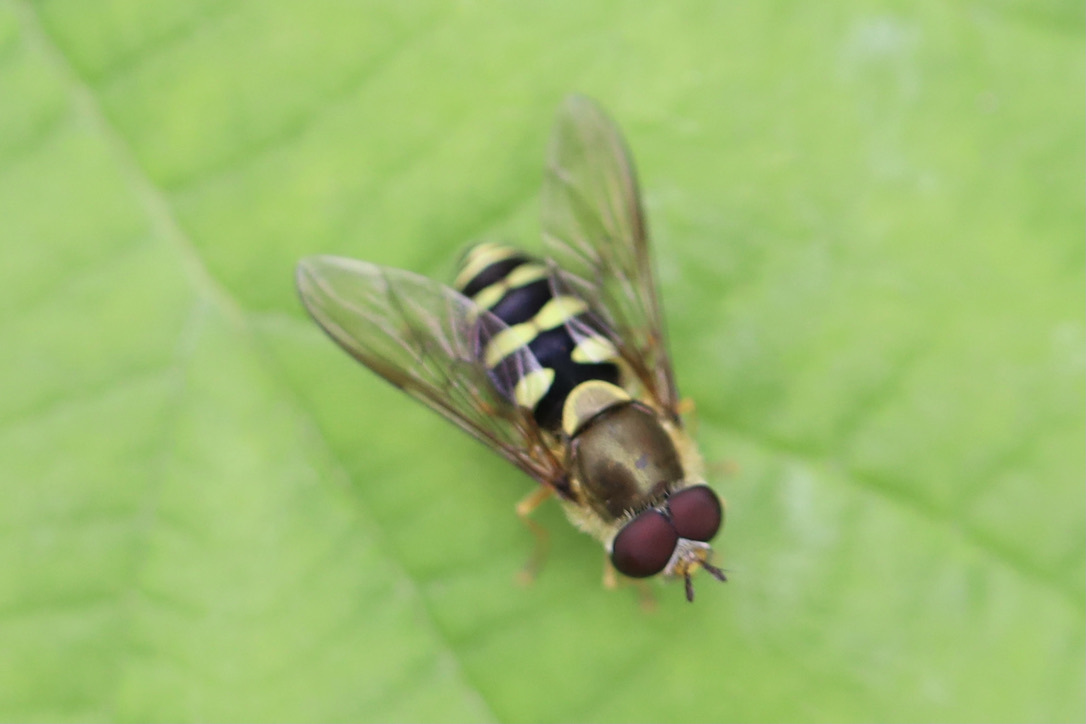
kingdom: Animalia
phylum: Arthropoda
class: Insecta
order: Diptera
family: Syrphidae
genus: Syrphus
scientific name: Syrphus opinator
